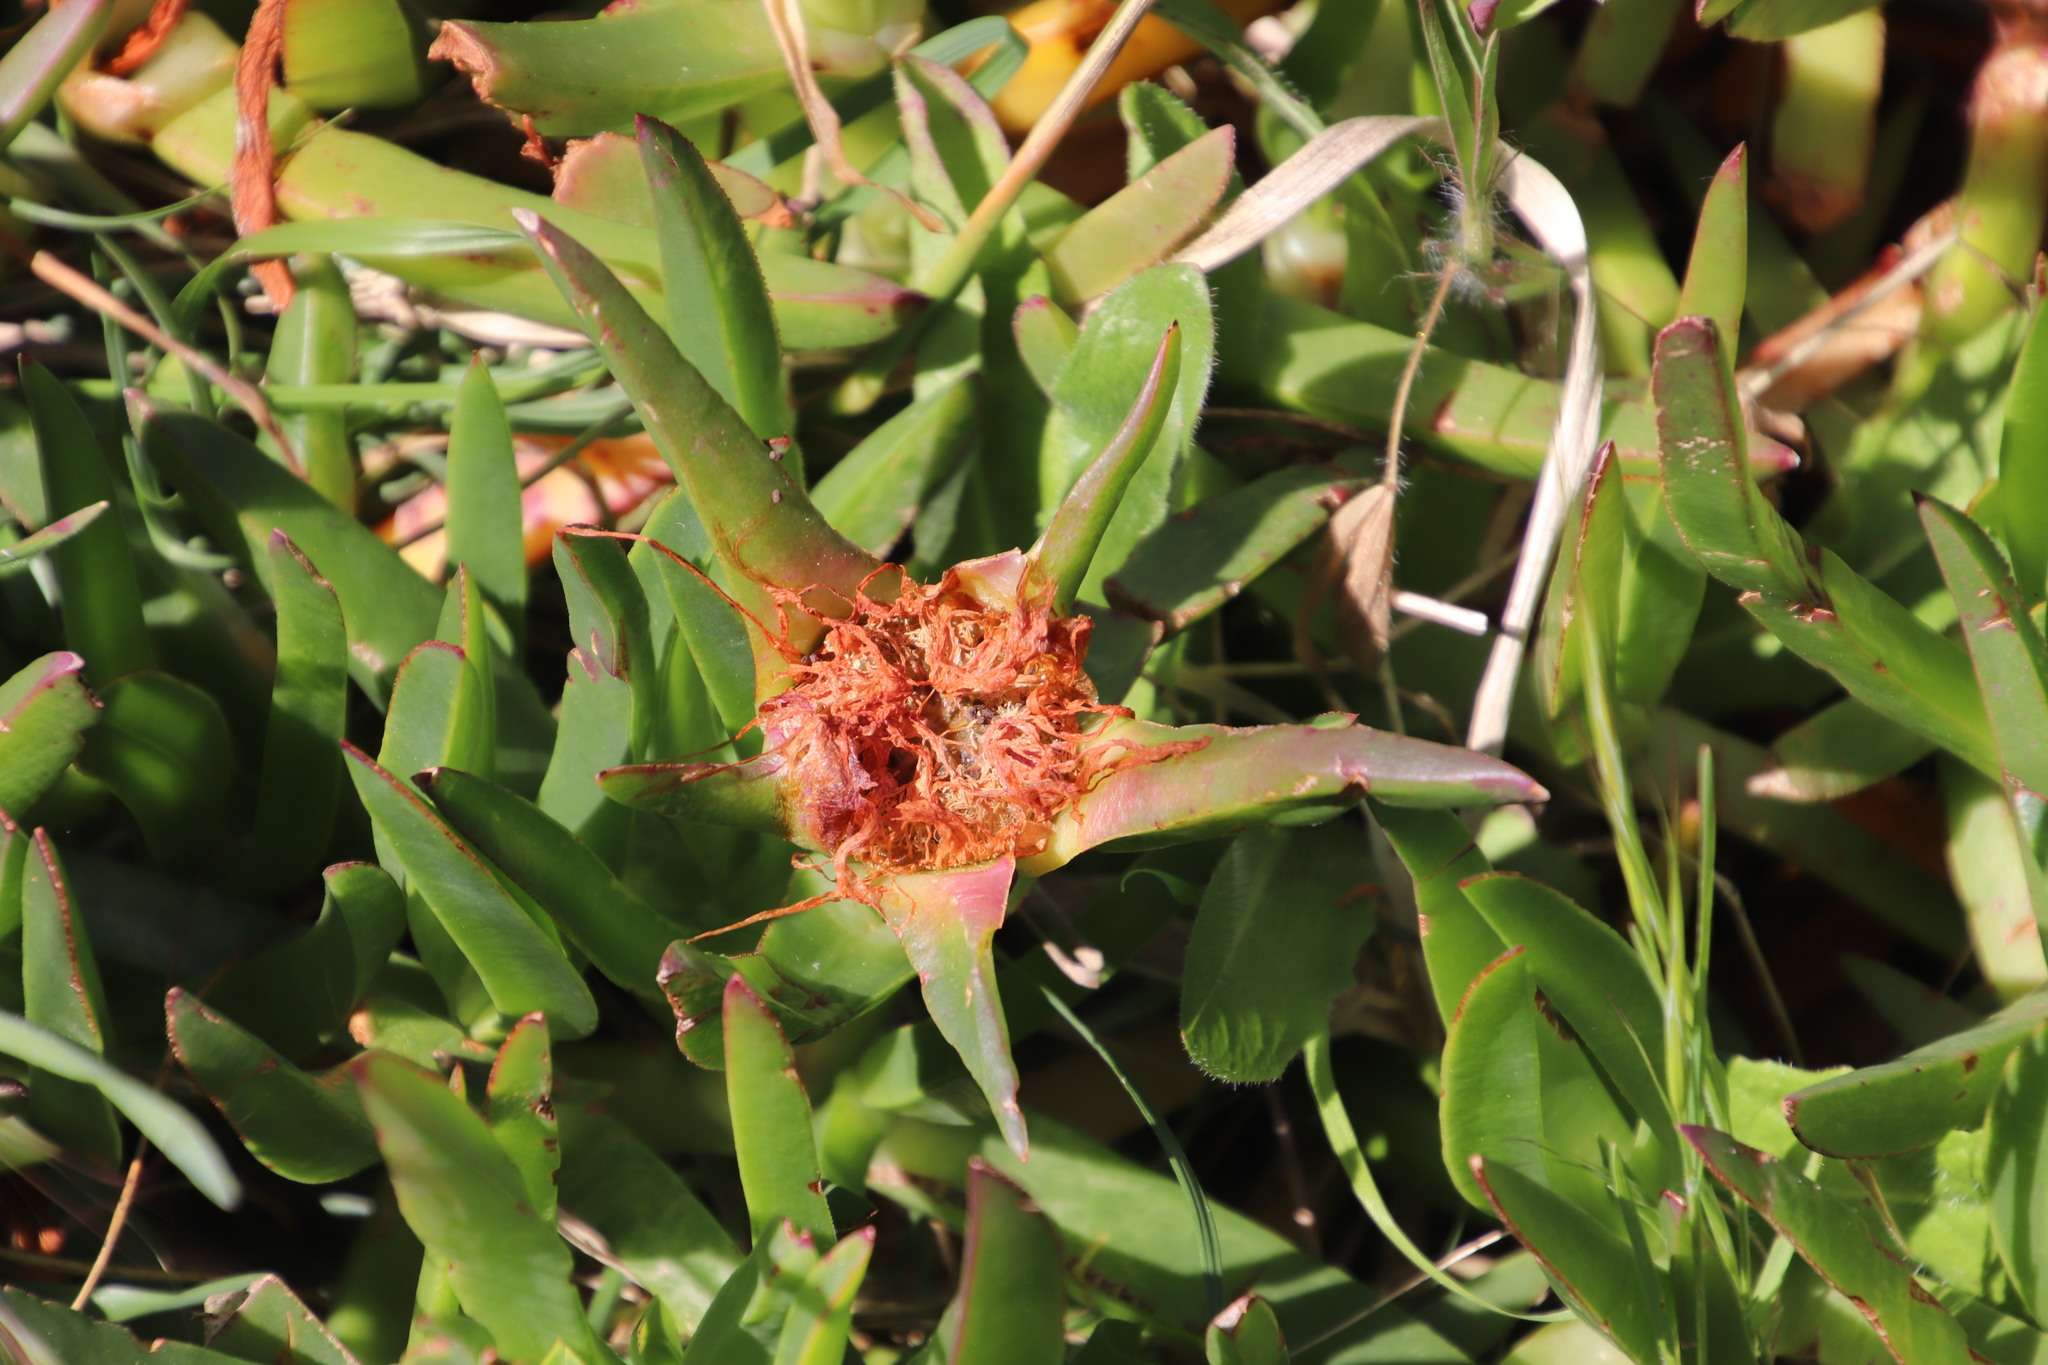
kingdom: Plantae
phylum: Tracheophyta
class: Magnoliopsida
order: Caryophyllales
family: Aizoaceae
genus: Carpobrotus
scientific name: Carpobrotus edulis
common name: Hottentot-fig
